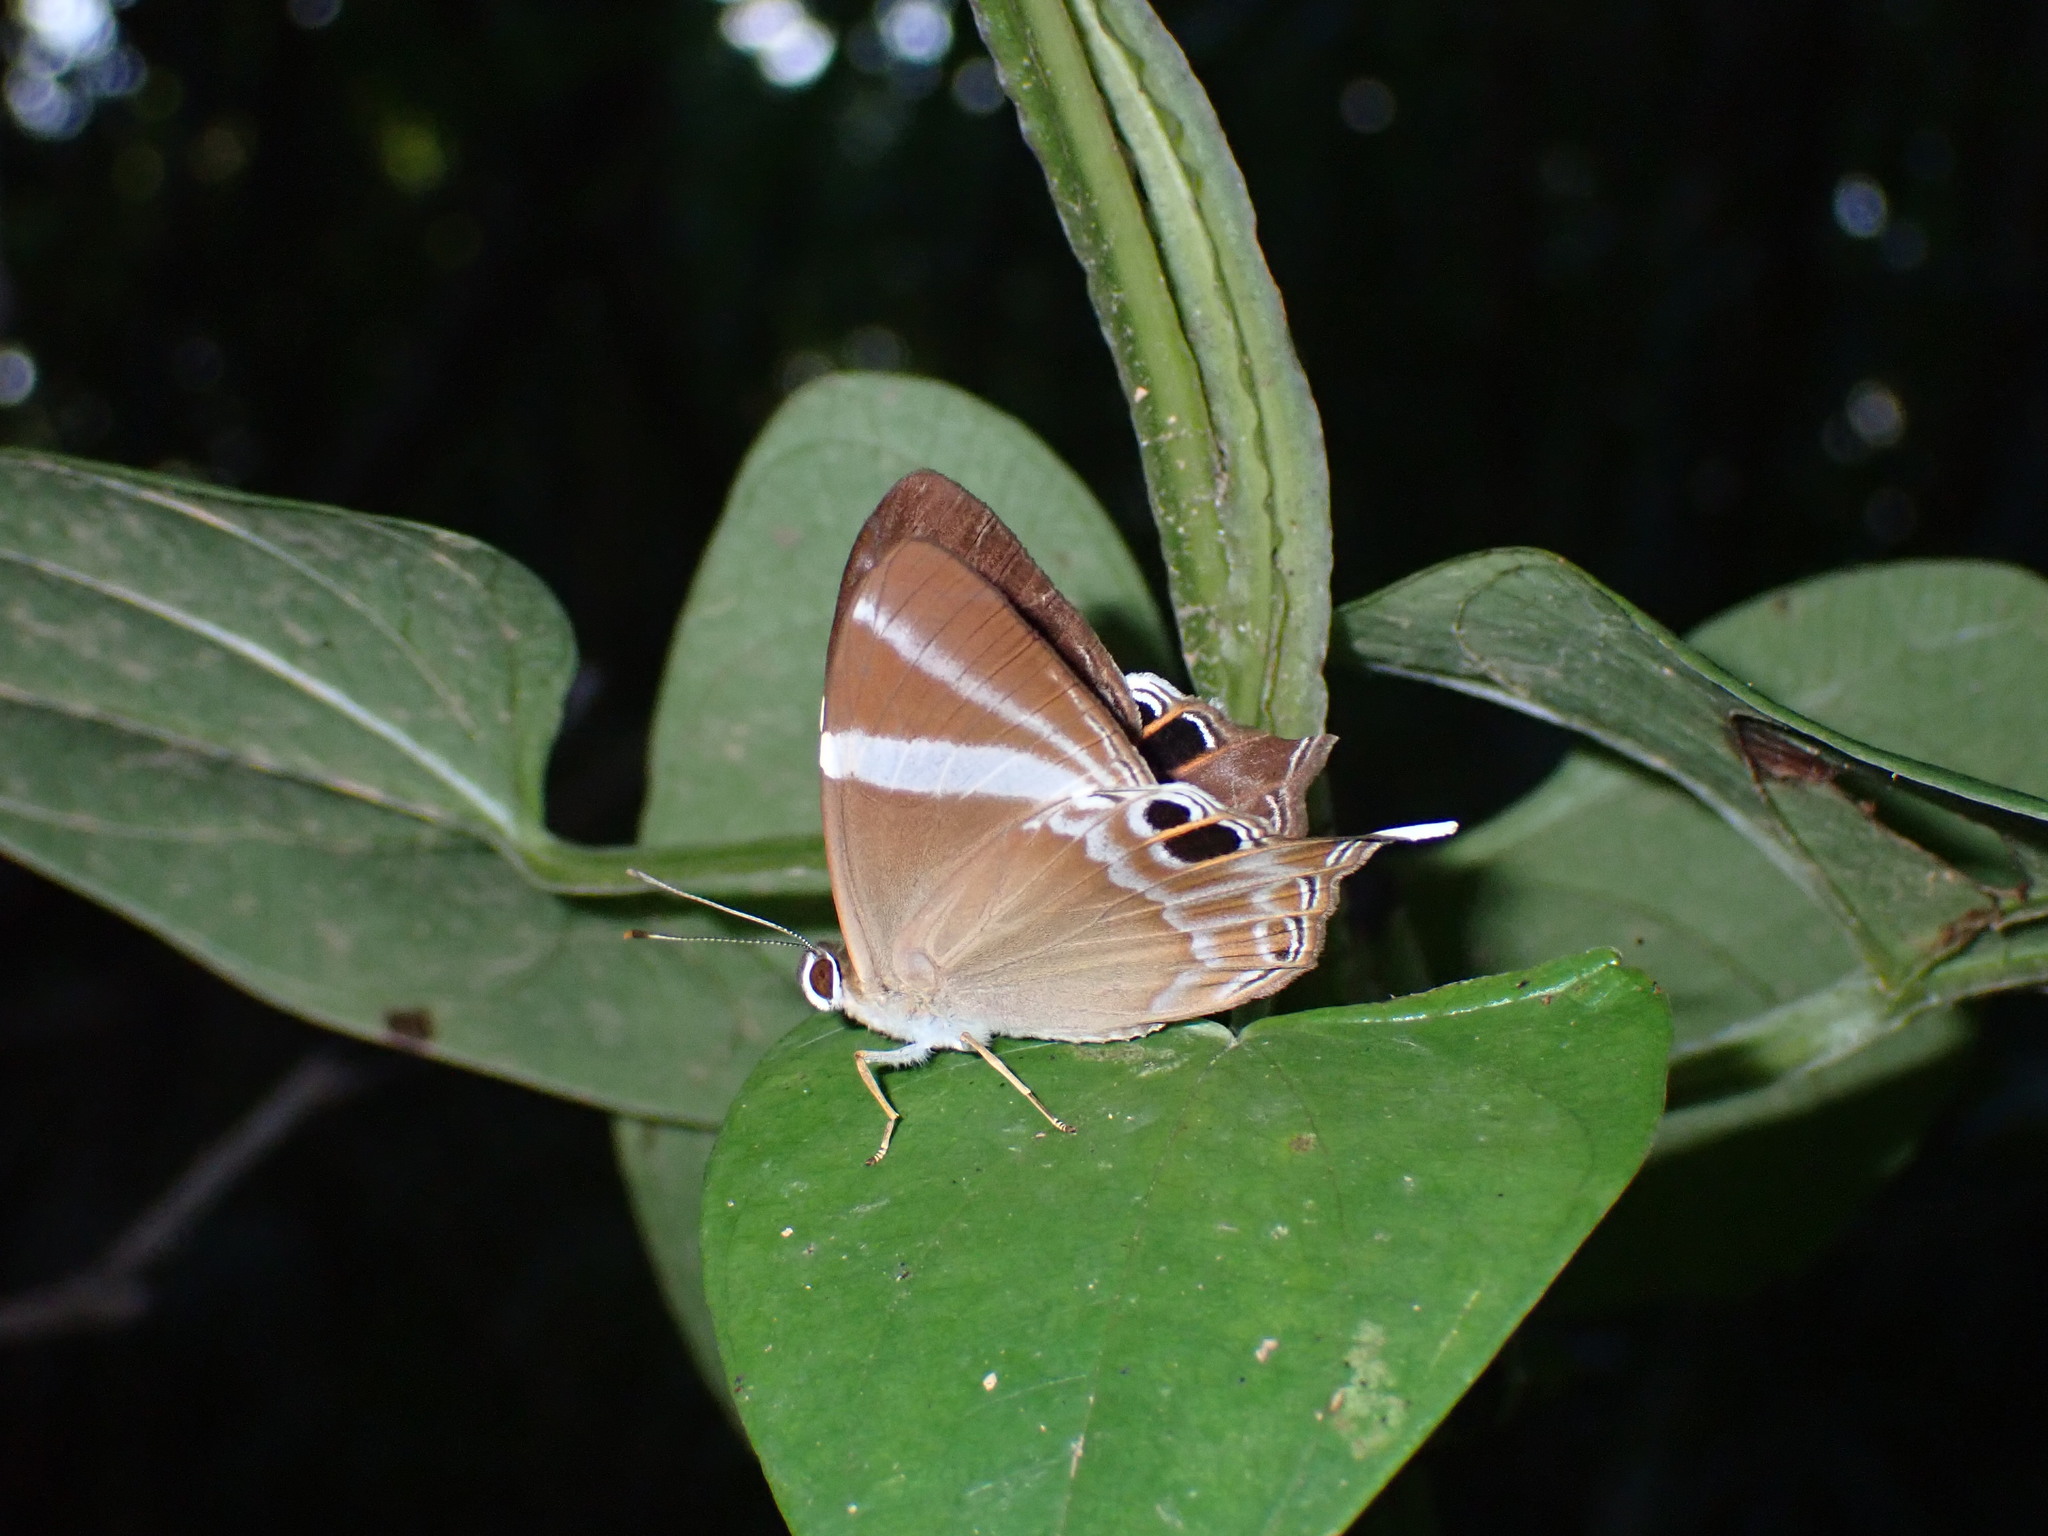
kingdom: Animalia
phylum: Arthropoda
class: Insecta
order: Lepidoptera
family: Lycaenidae
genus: Abisara
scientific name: Abisara neophron
